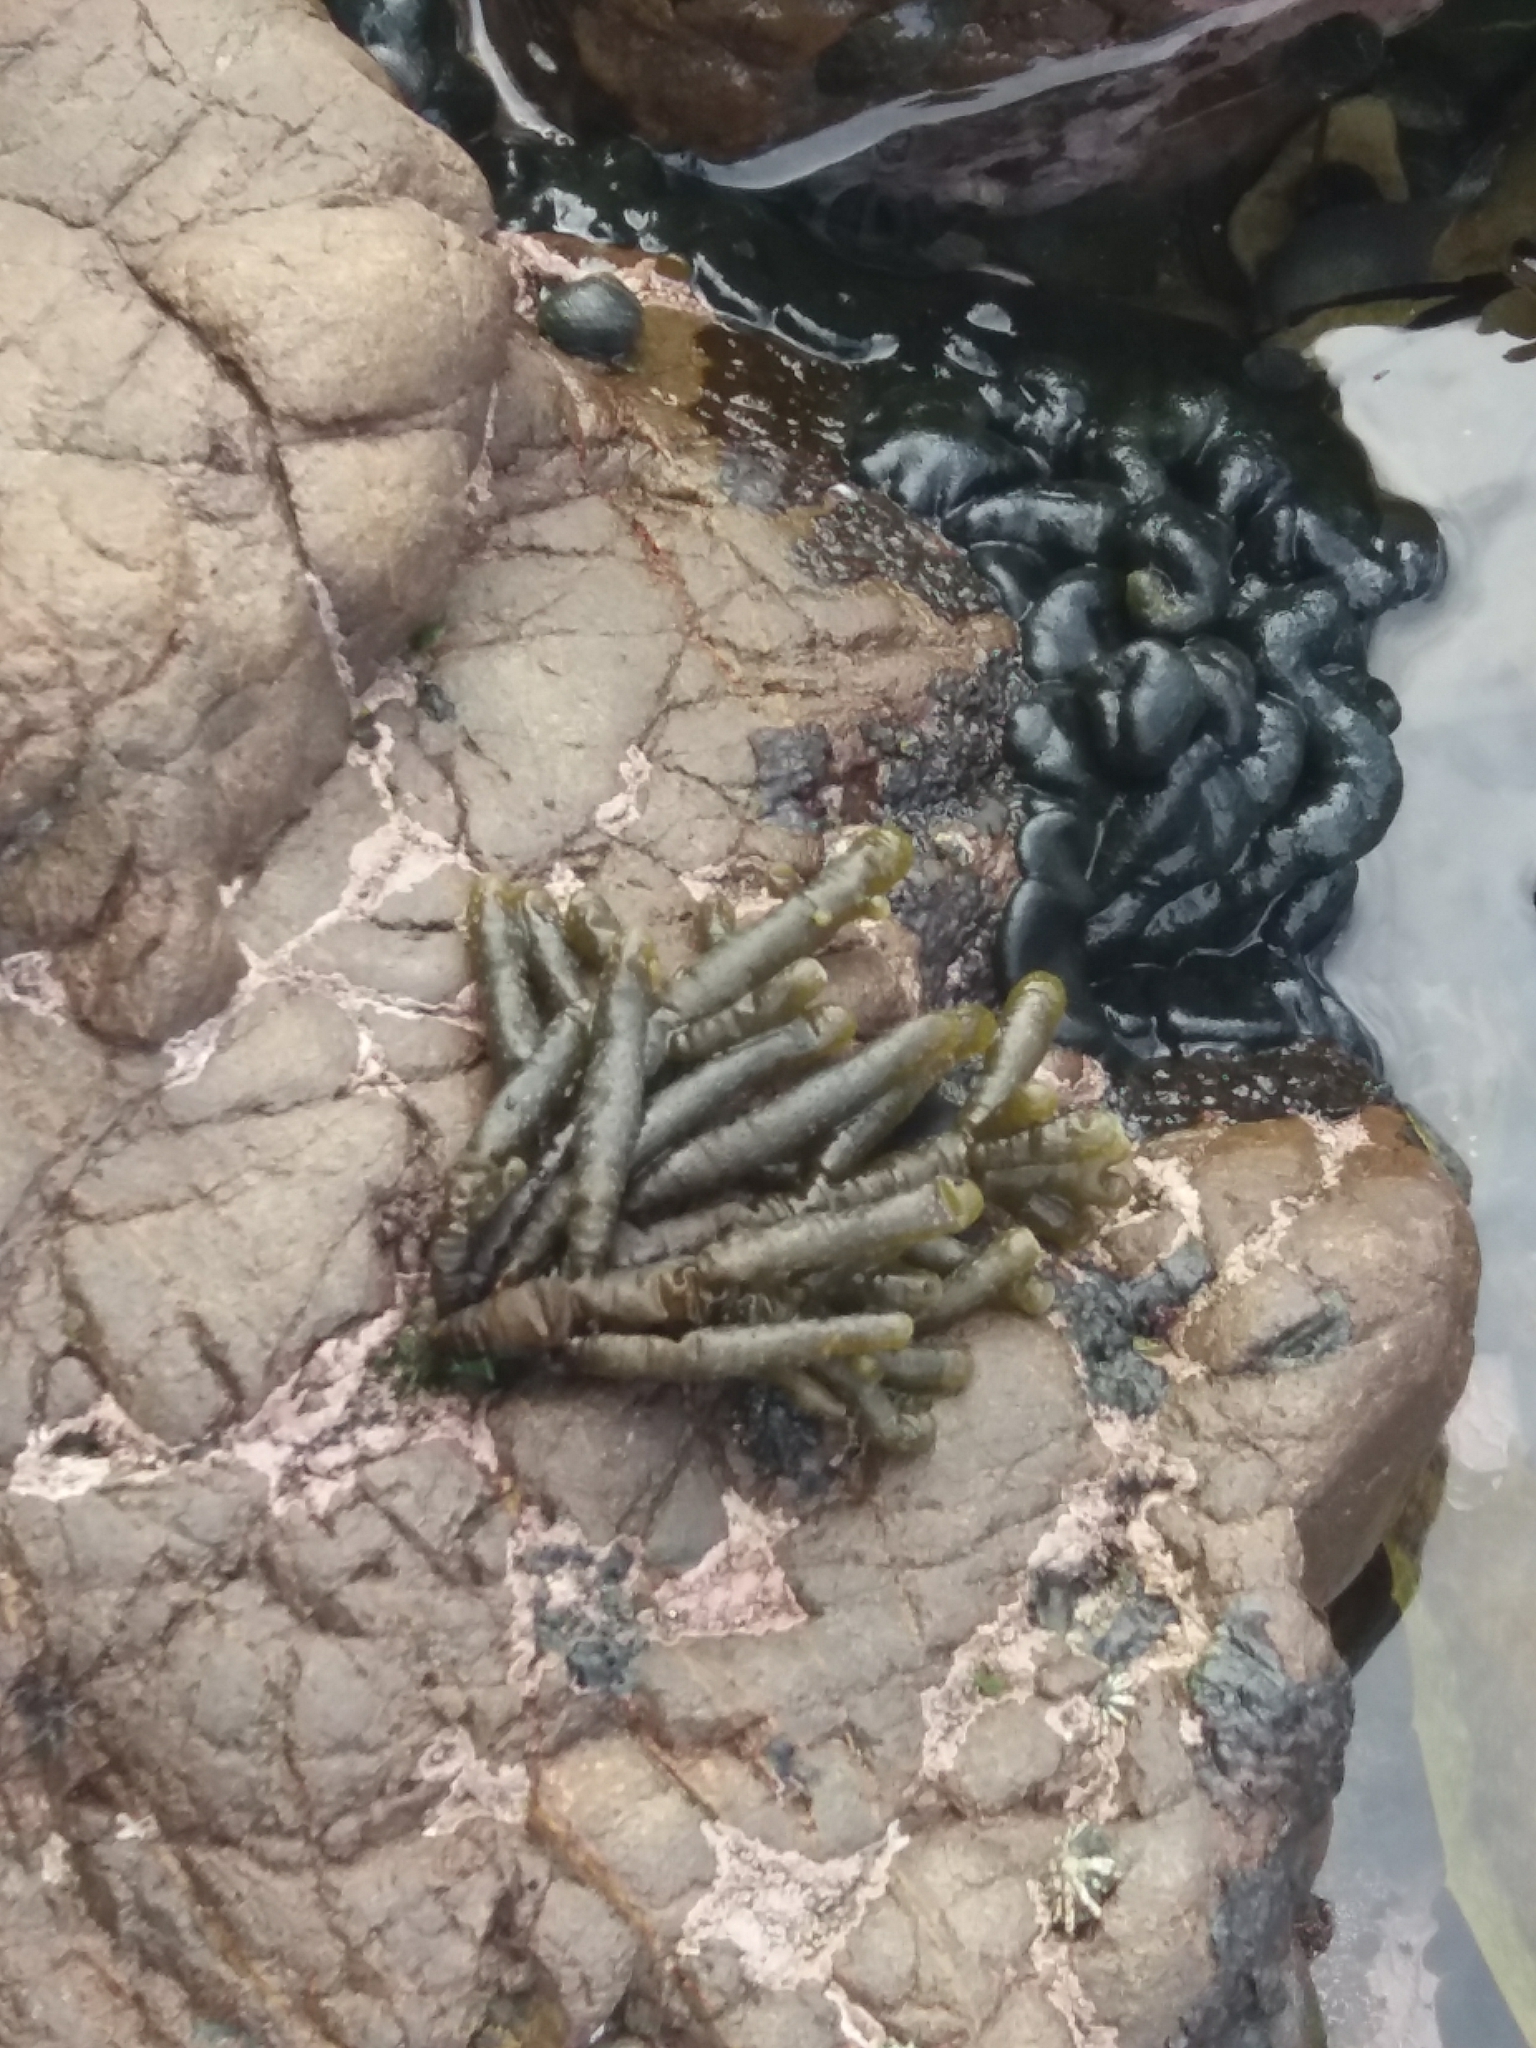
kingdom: Chromista
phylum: Ochrophyta
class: Phaeophyceae
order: Scytothamnales
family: Splachnidiaceae
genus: Splachnidium
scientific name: Splachnidium rugosum
